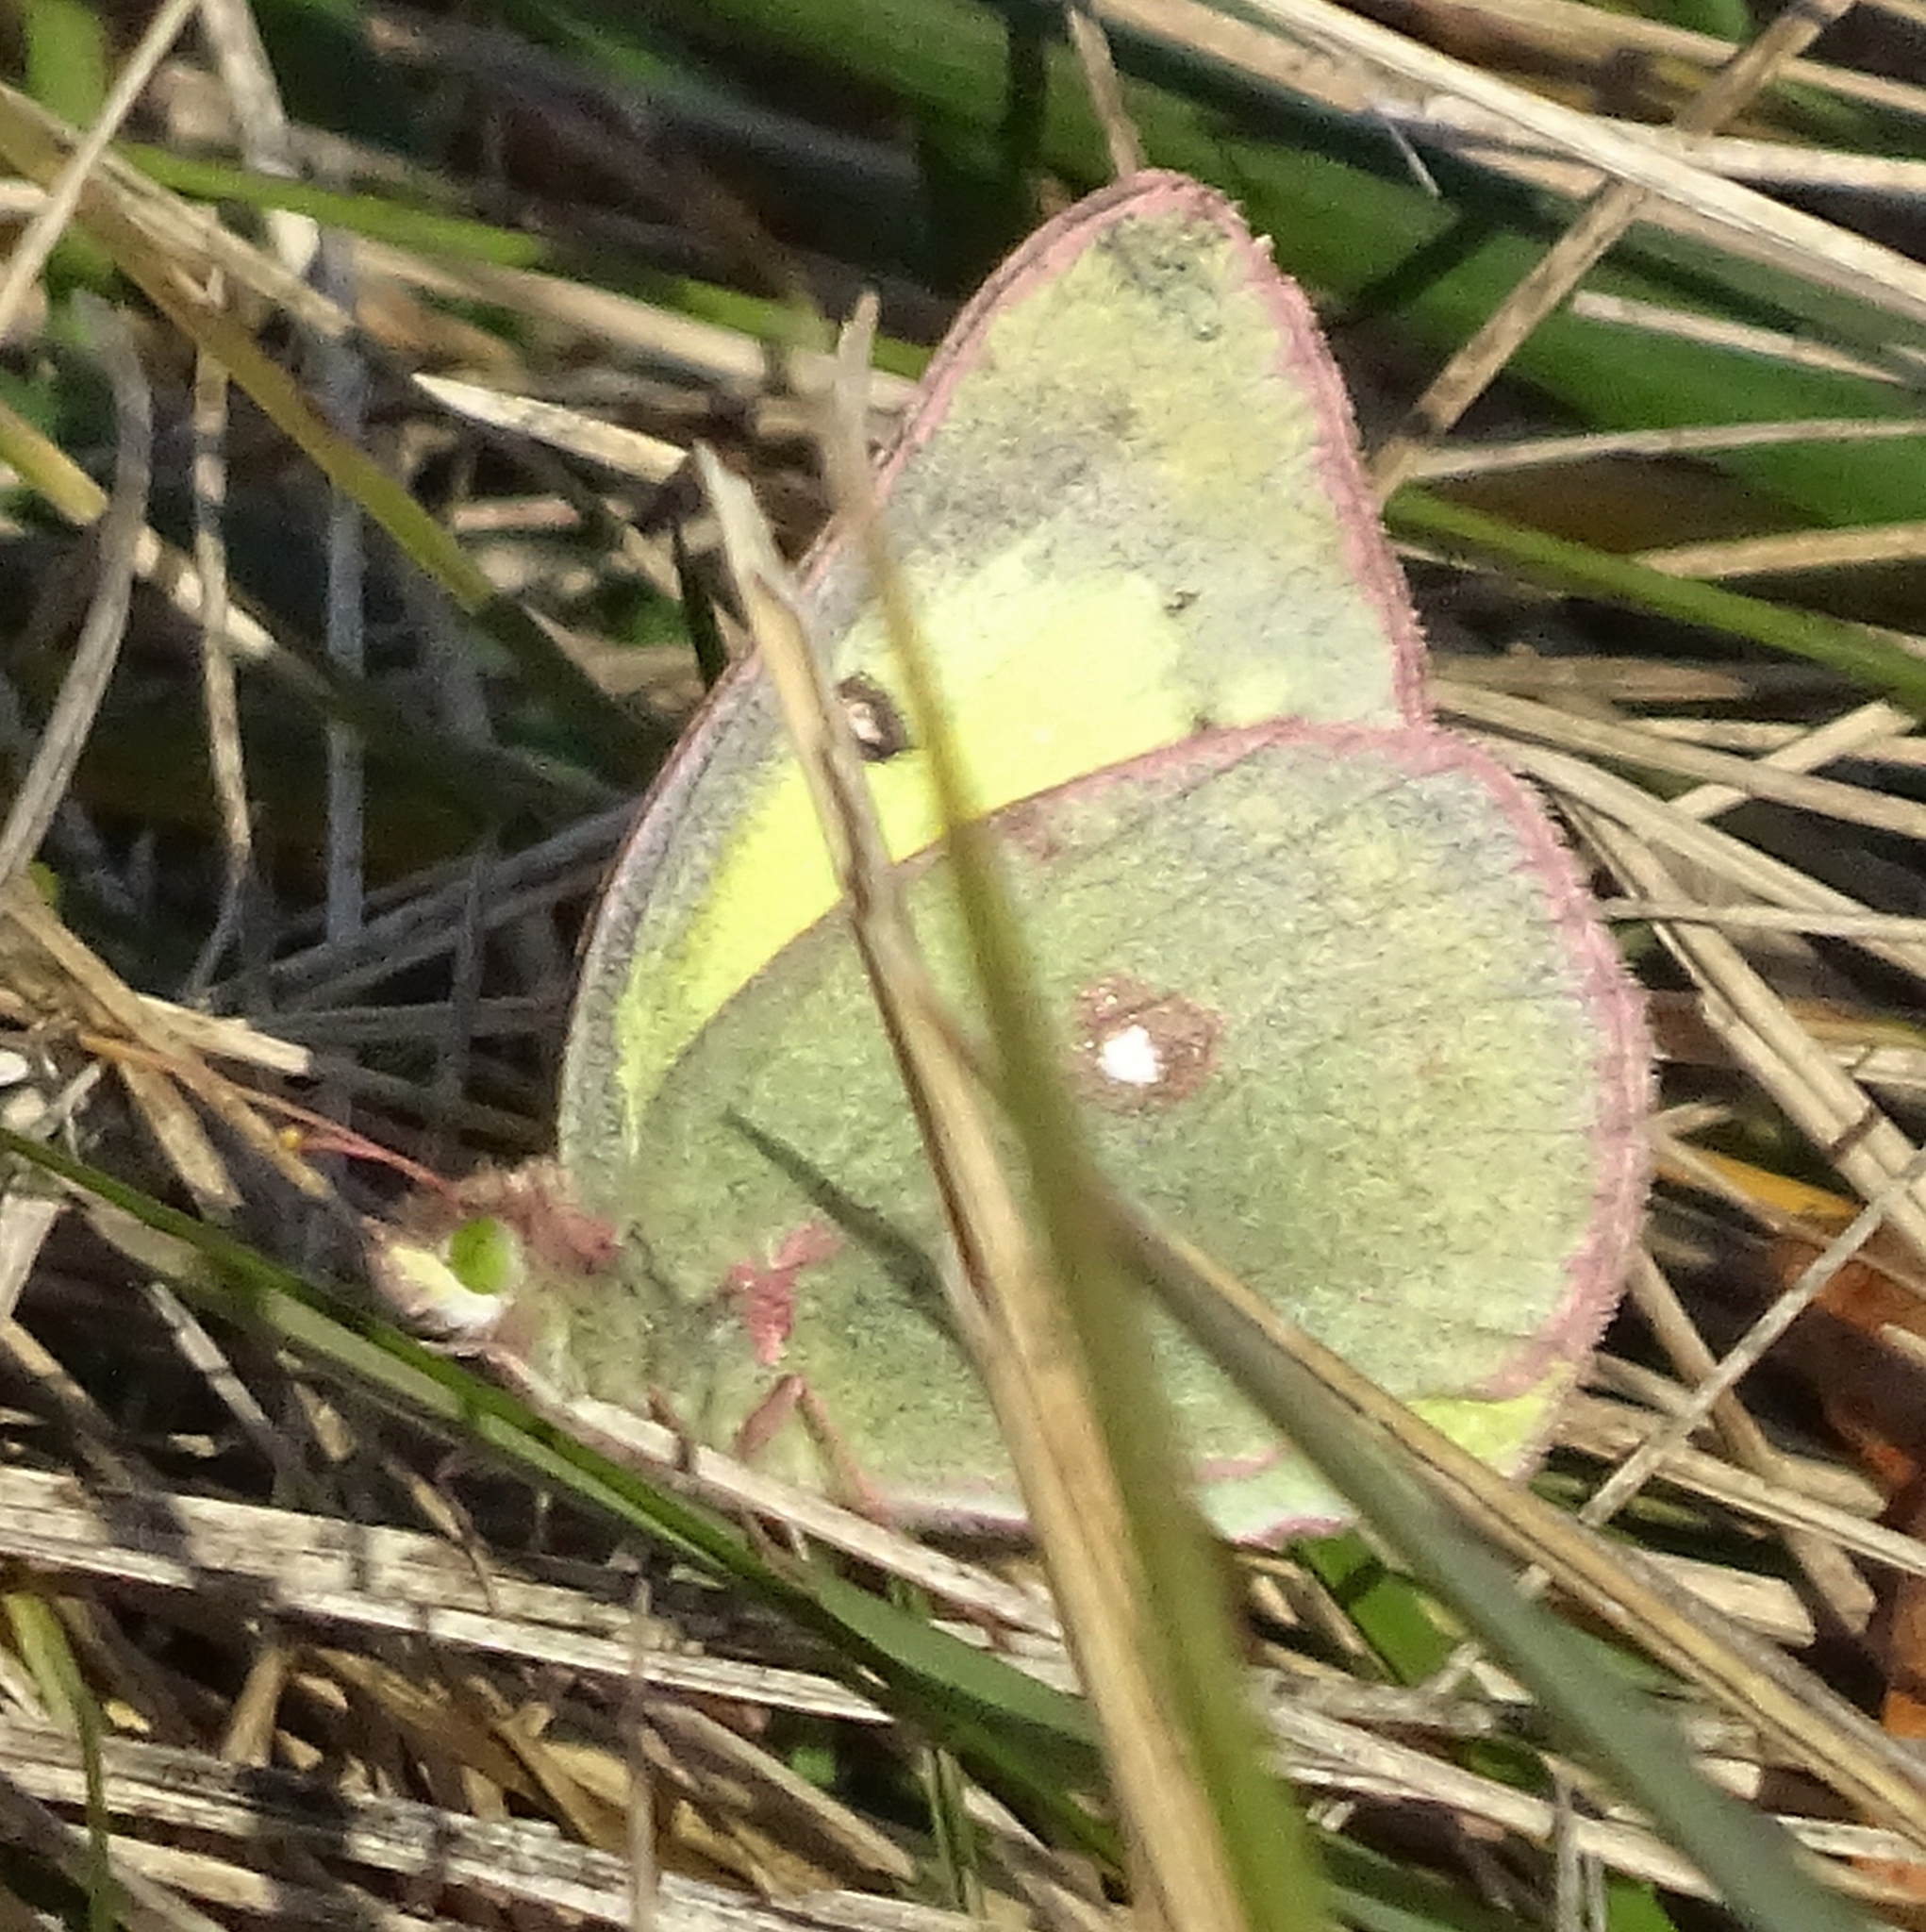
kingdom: Animalia
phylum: Arthropoda
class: Insecta
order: Lepidoptera
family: Pieridae
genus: Colias
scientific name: Colias philodice
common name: Clouded sulphur
